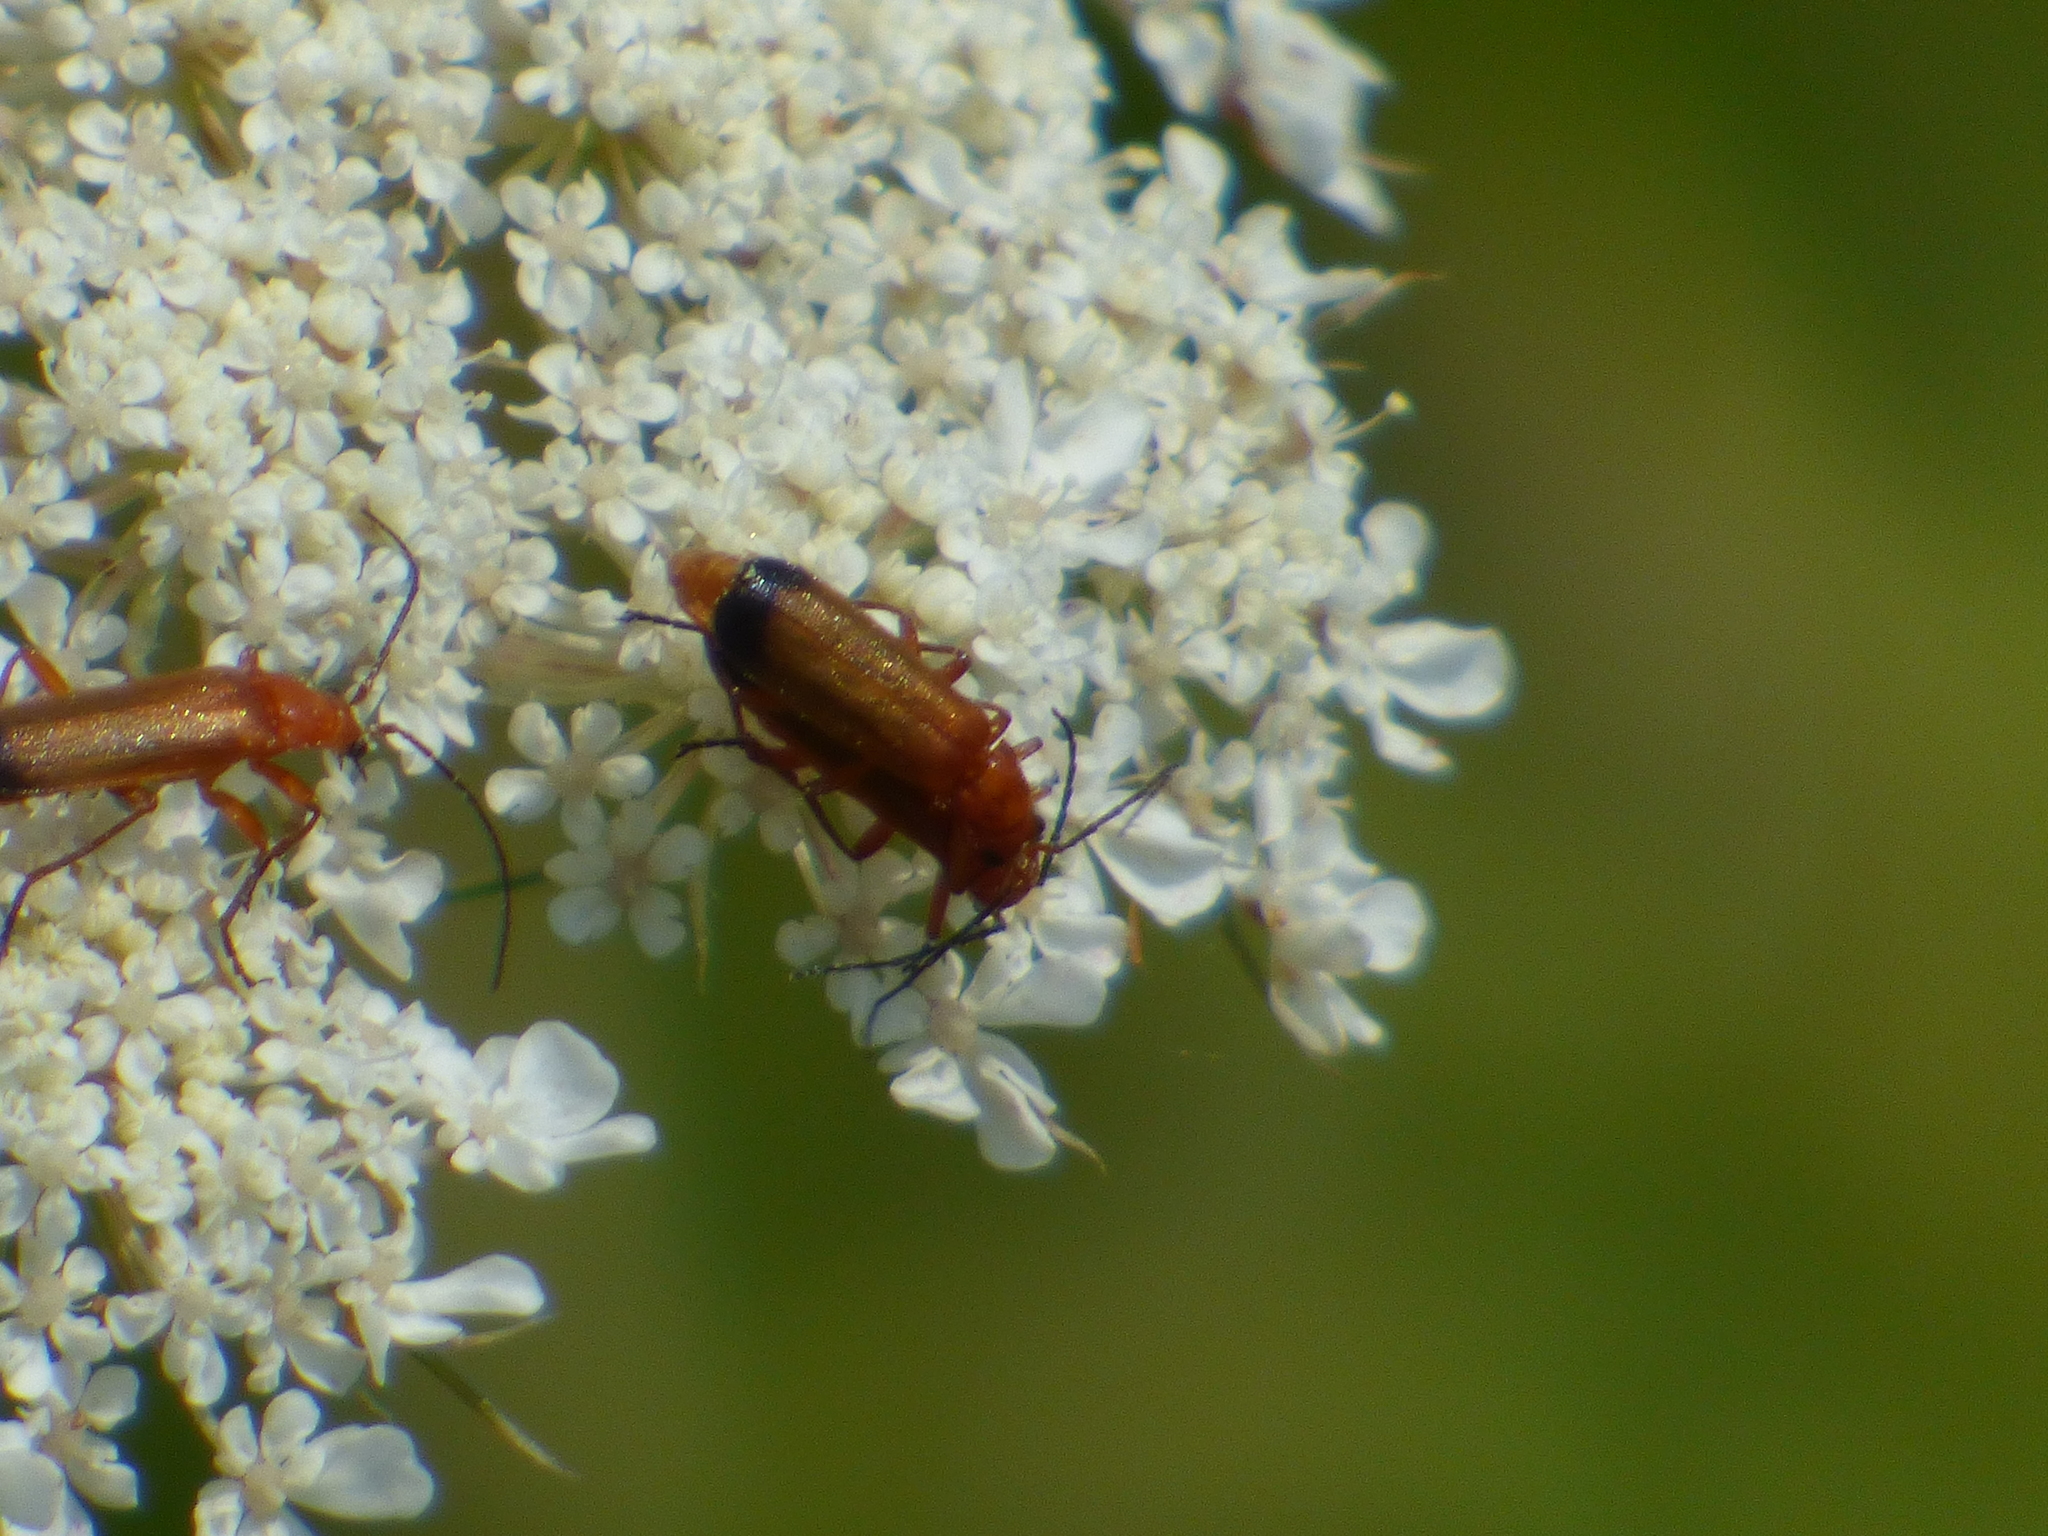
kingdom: Animalia
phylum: Arthropoda
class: Insecta
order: Coleoptera
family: Cantharidae
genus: Rhagonycha
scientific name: Rhagonycha fulva
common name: Common red soldier beetle
